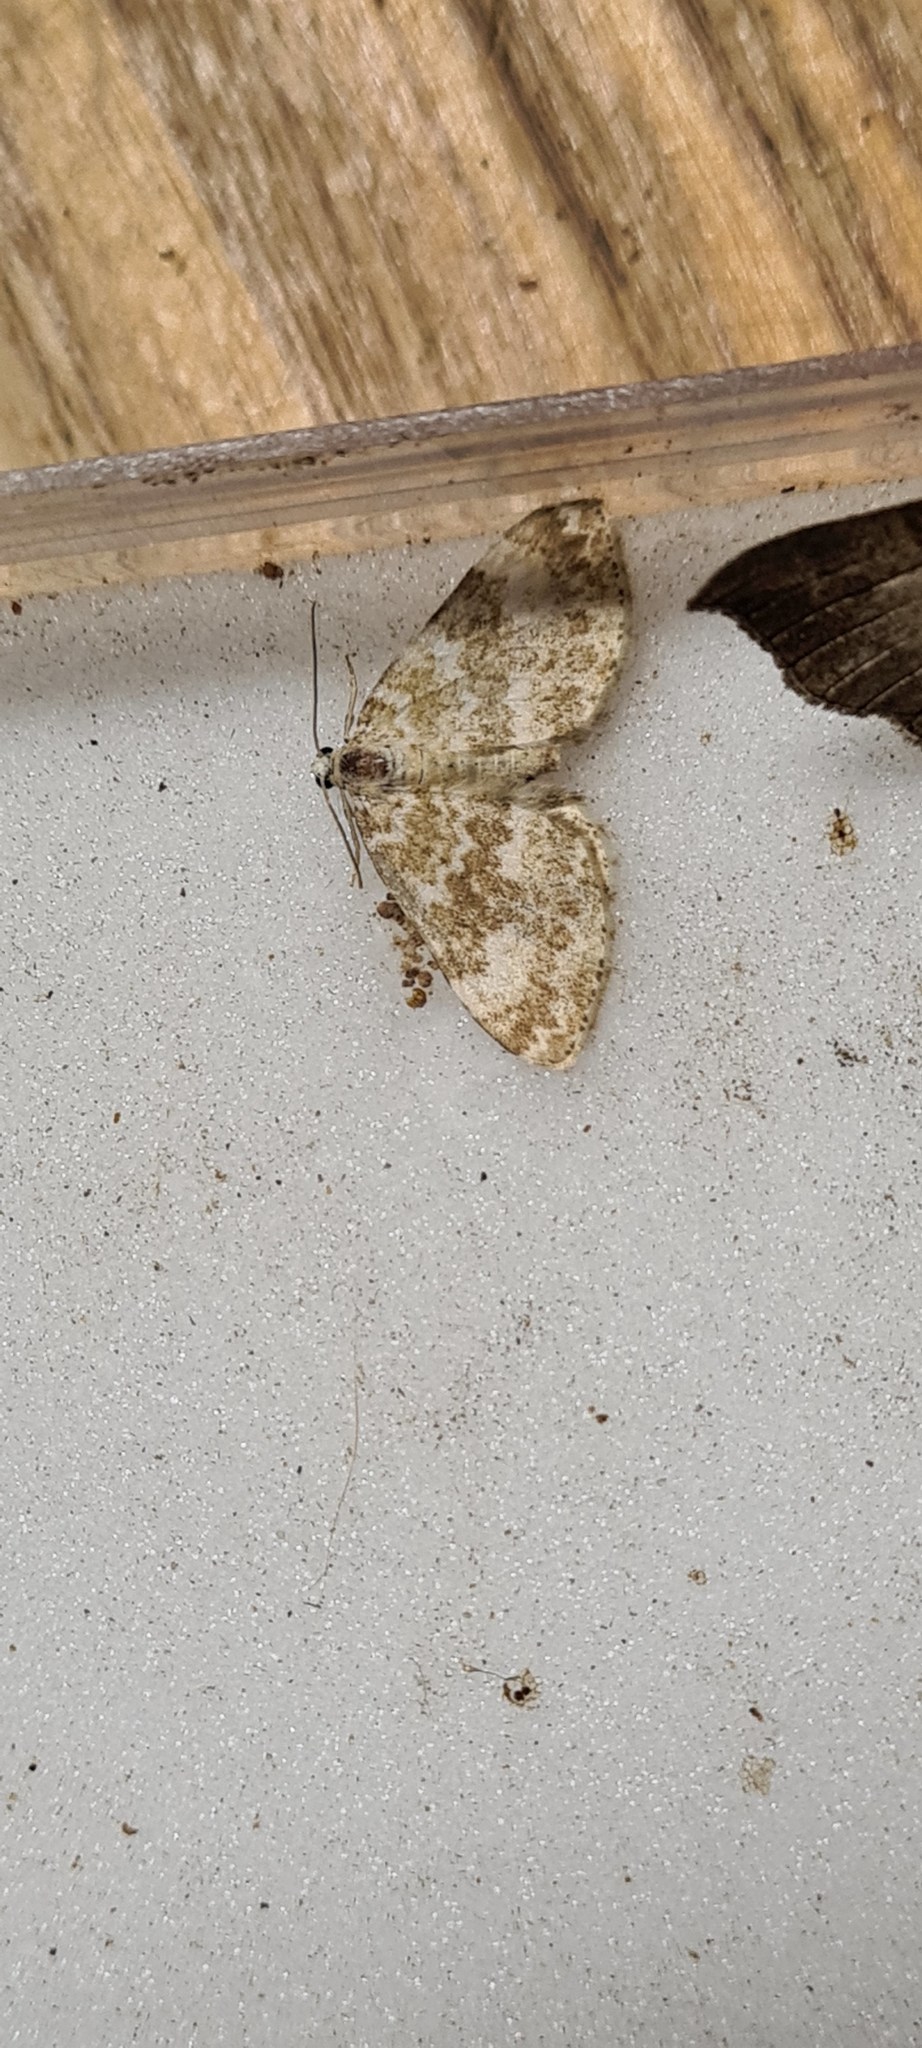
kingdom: Animalia
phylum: Arthropoda
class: Insecta
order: Lepidoptera
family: Geometridae
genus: Perizoma
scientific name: Perizoma flavofasciata
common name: Sandy carpet
